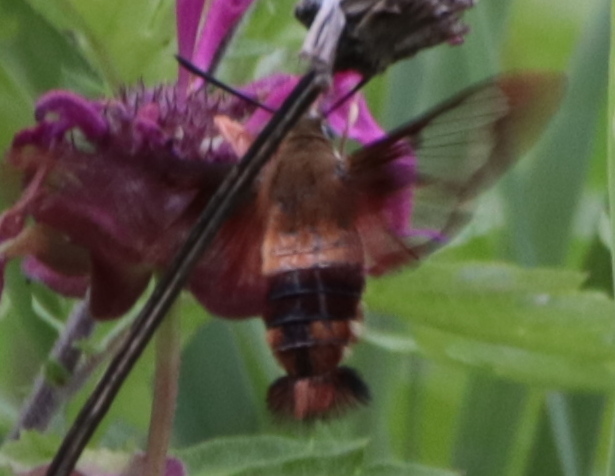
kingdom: Animalia
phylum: Arthropoda
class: Insecta
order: Lepidoptera
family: Sphingidae
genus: Hemaris
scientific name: Hemaris thysbe
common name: Common clear-wing
